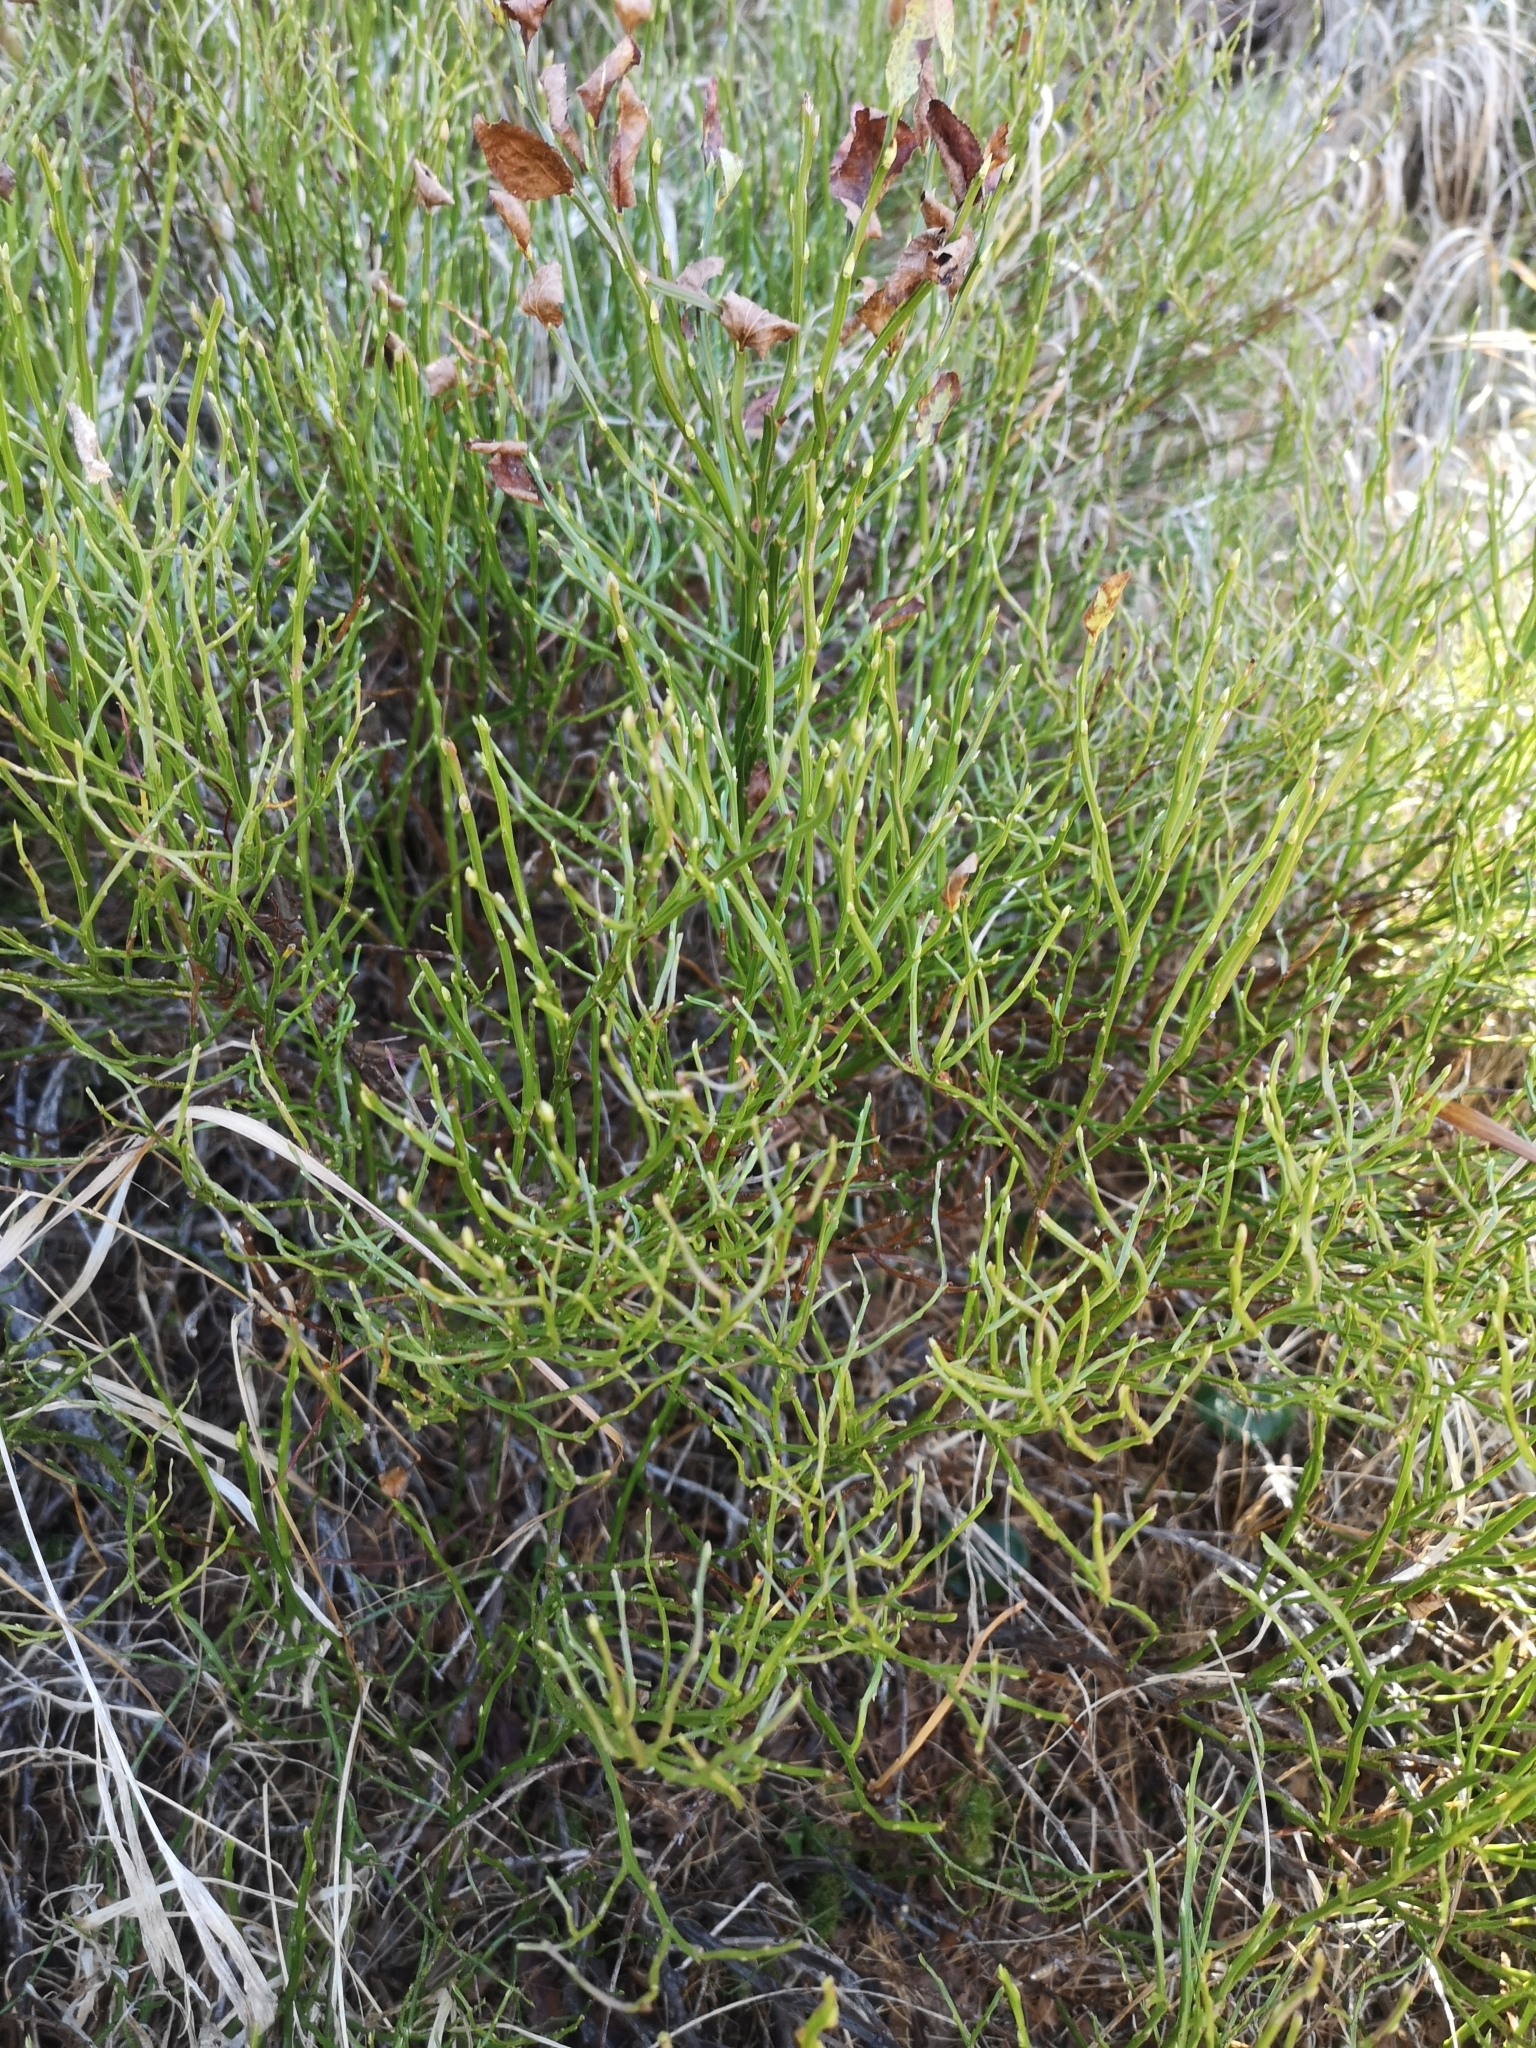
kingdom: Plantae
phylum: Tracheophyta
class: Magnoliopsida
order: Ericales
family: Ericaceae
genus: Vaccinium
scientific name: Vaccinium myrtillus
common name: Bilberry
